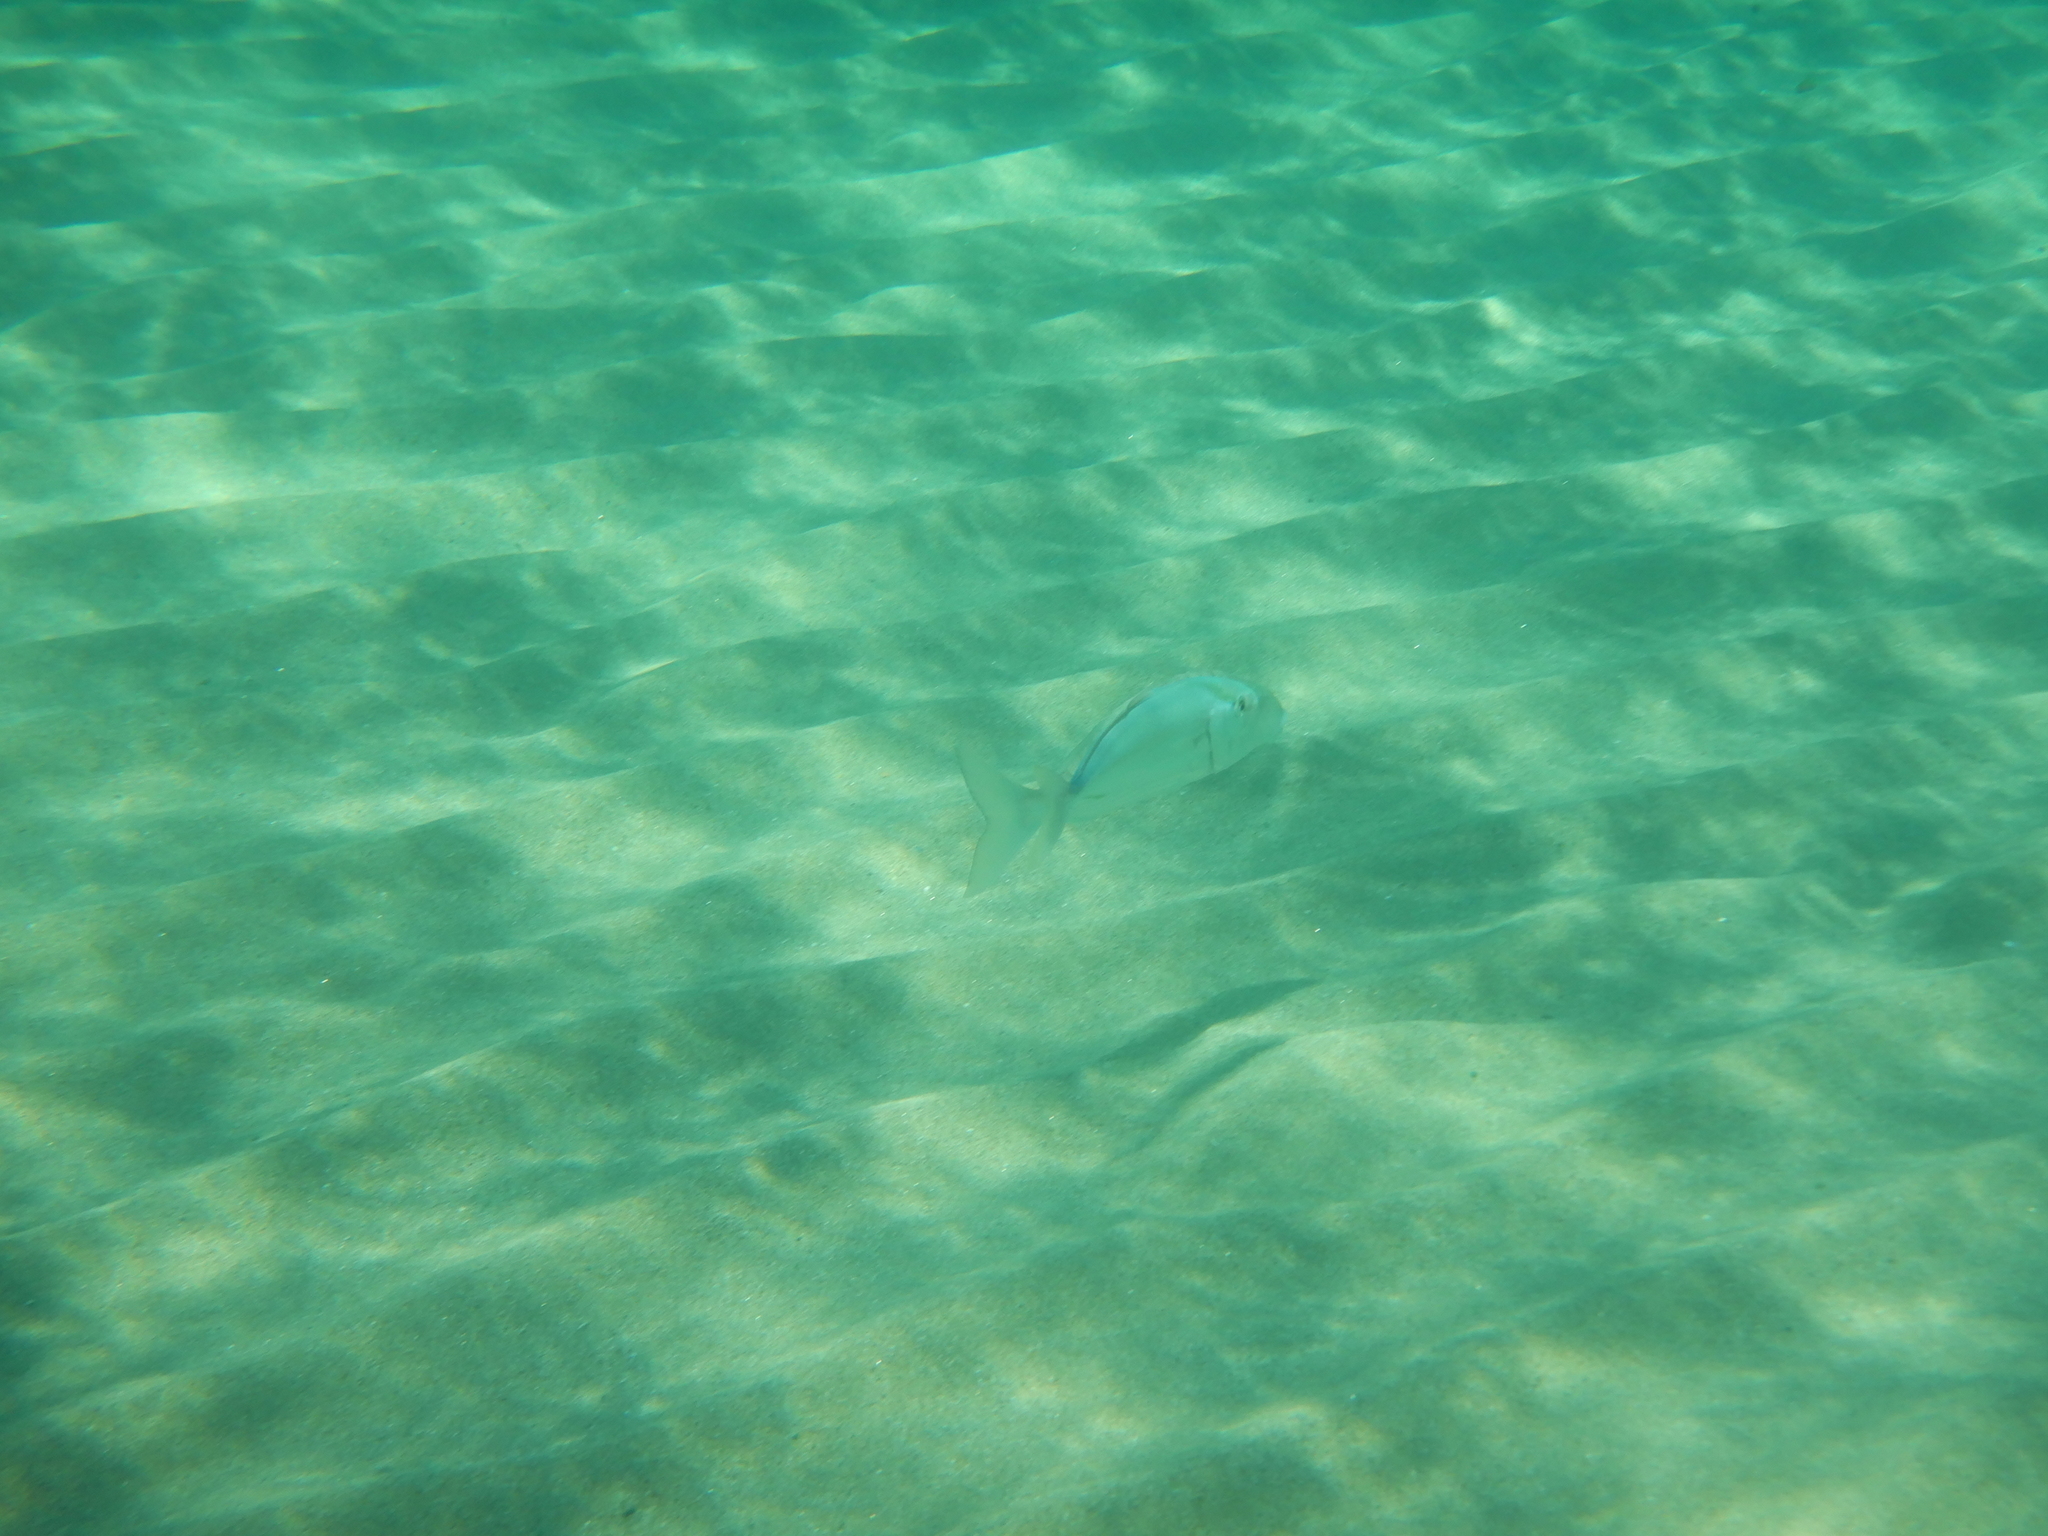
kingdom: Animalia
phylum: Chordata
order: Perciformes
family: Carangidae
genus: Seriola
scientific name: Seriola dumerili
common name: Greater amberjack
